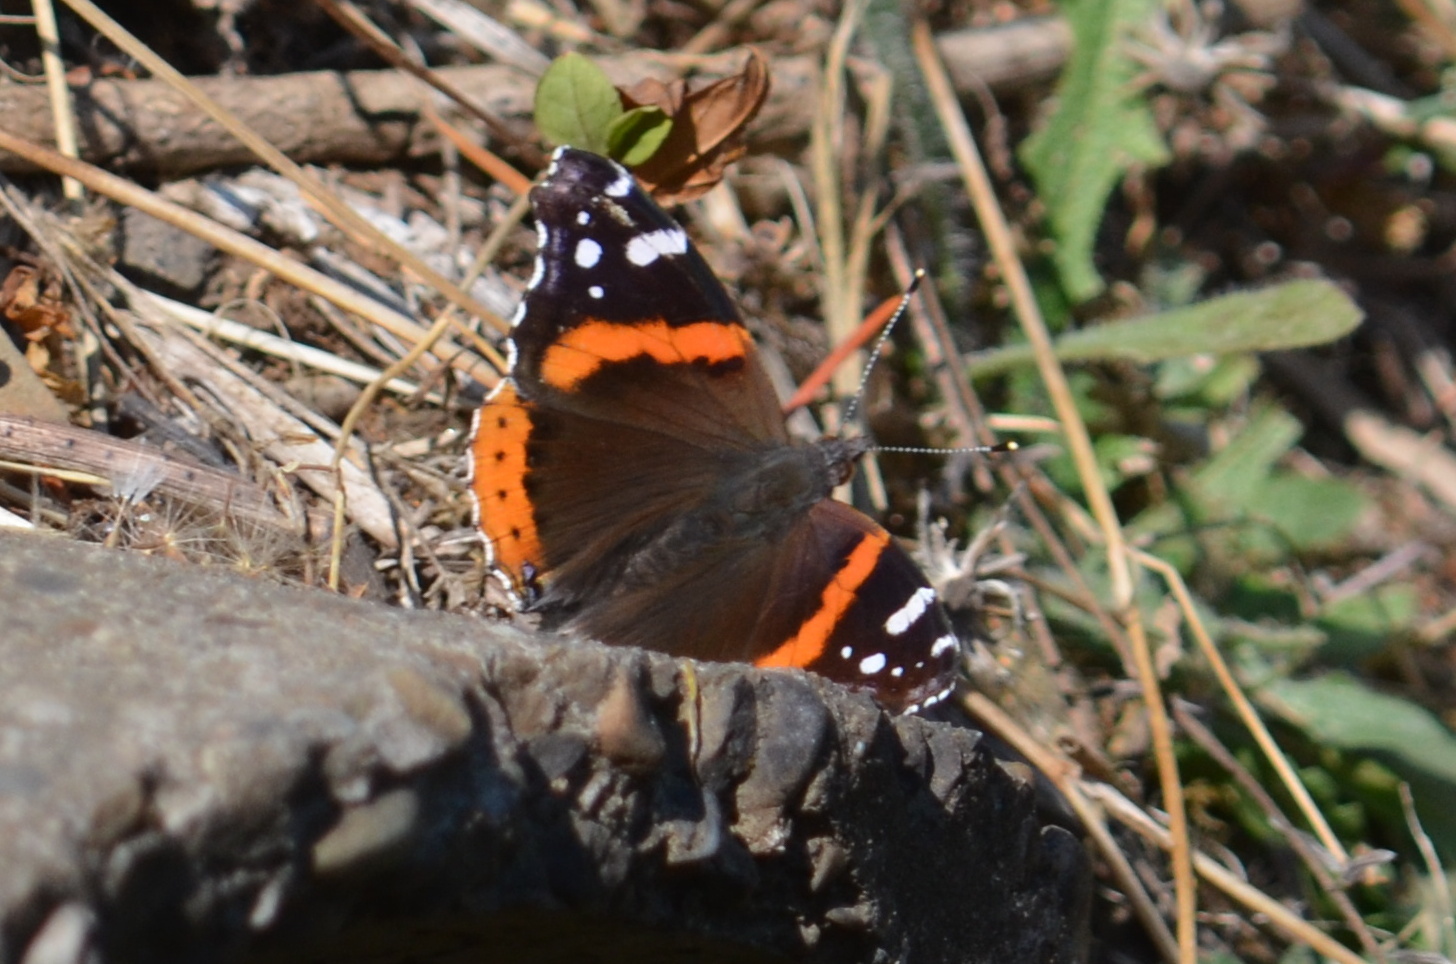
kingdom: Animalia
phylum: Arthropoda
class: Insecta
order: Lepidoptera
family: Nymphalidae
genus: Vanessa
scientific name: Vanessa atalanta
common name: Red admiral
